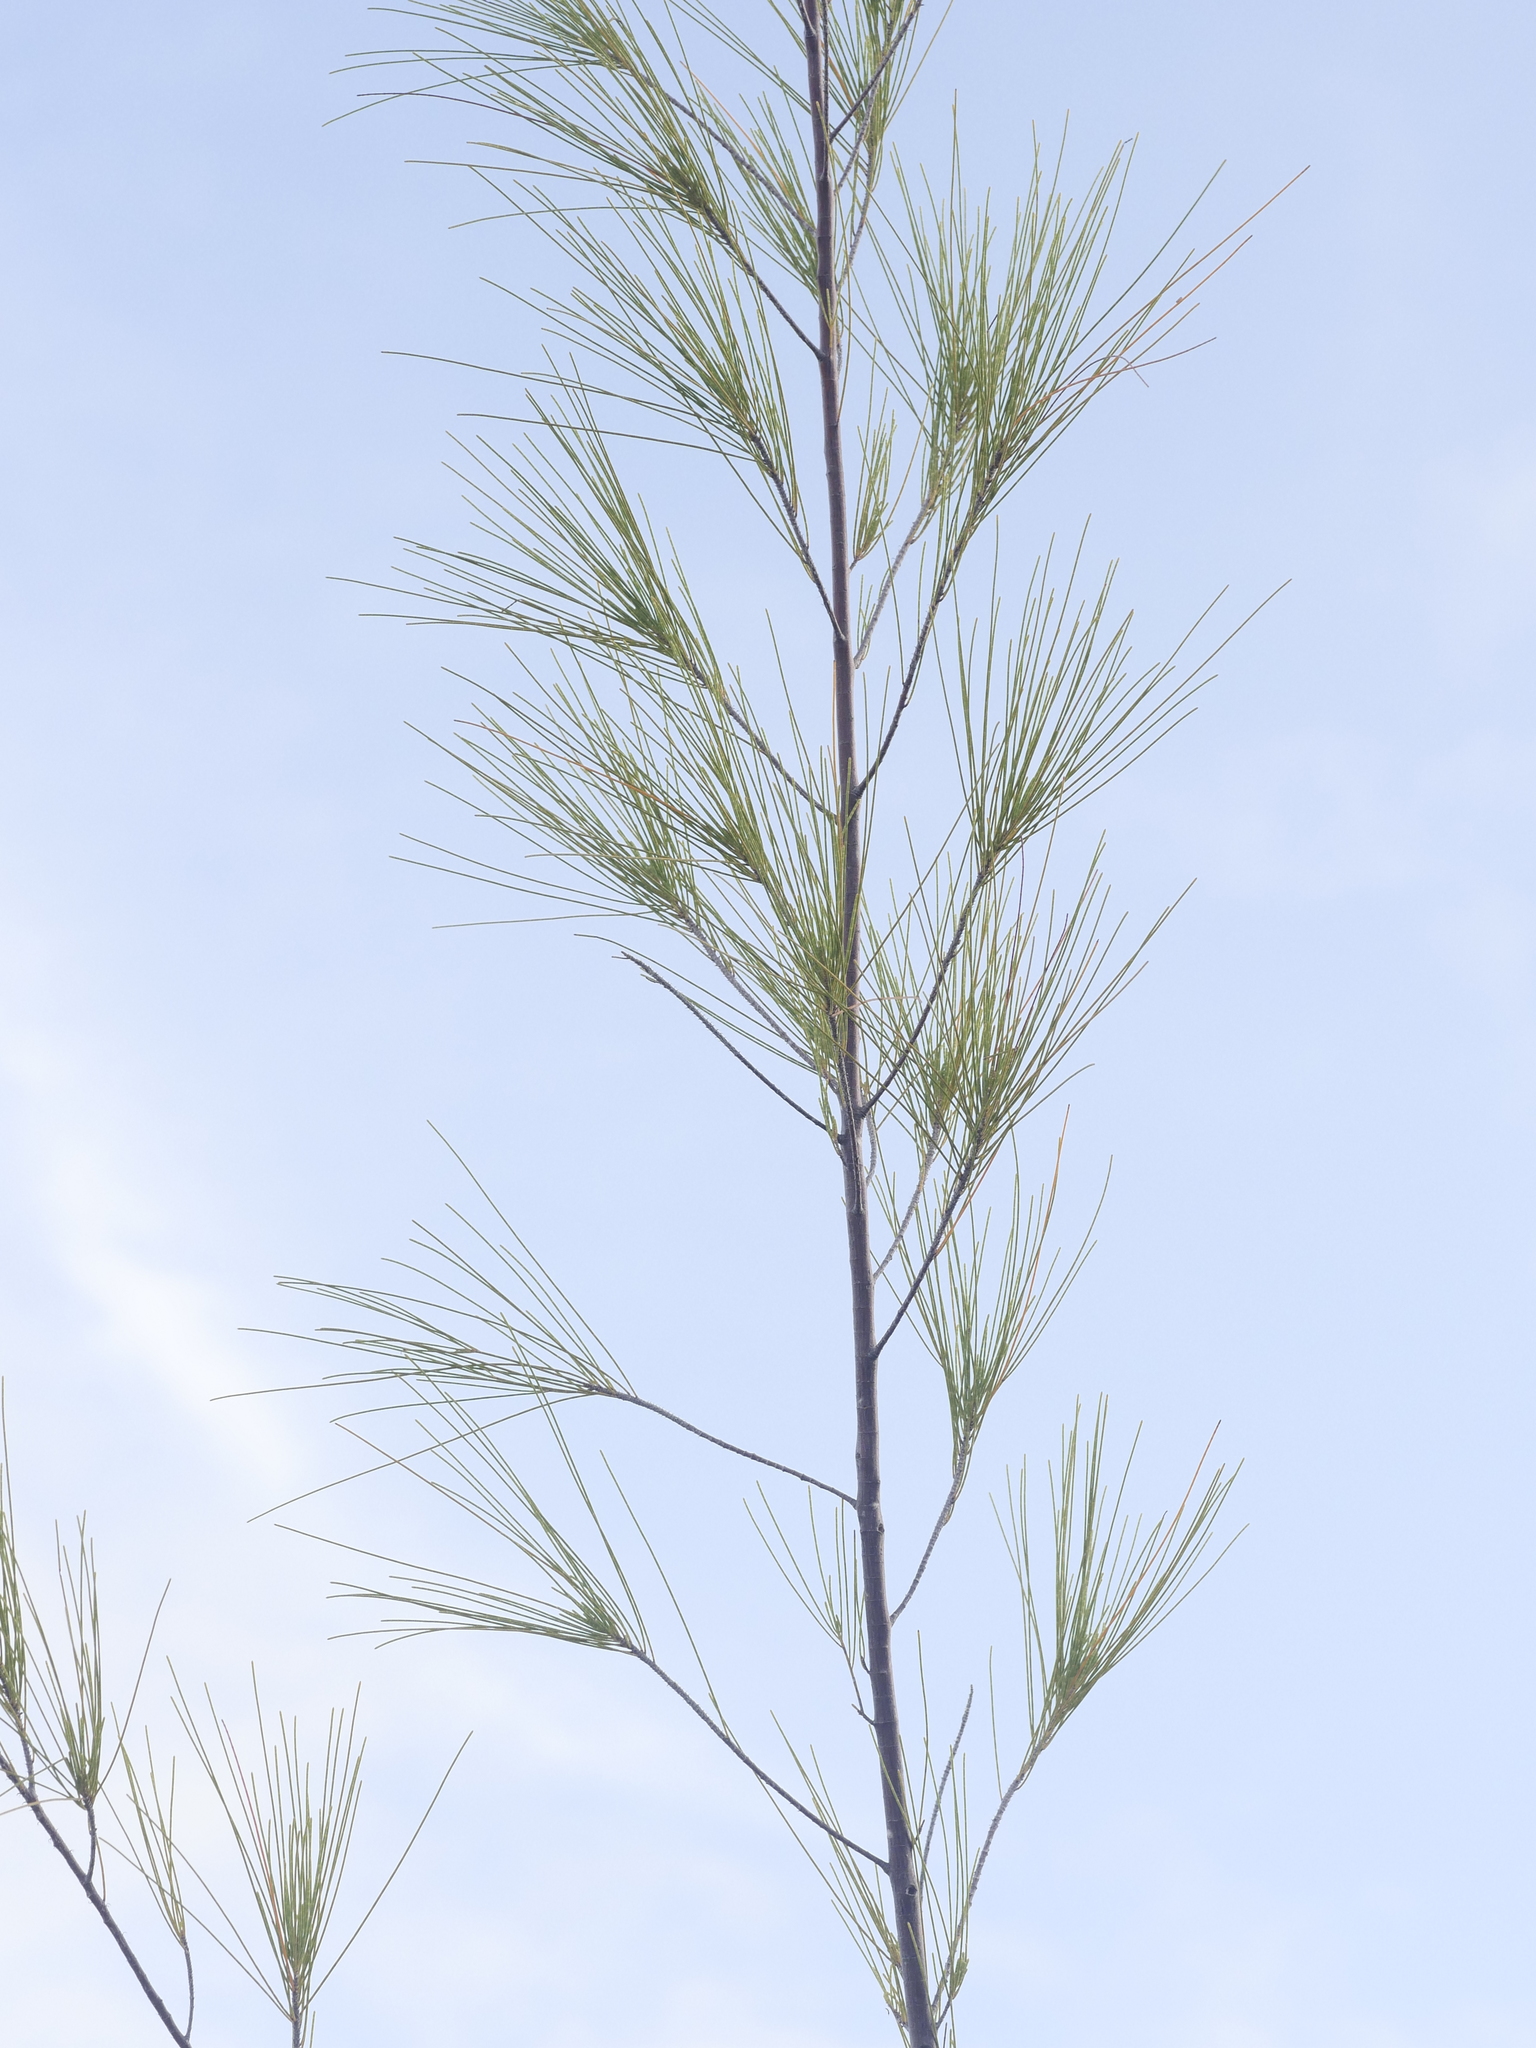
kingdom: Plantae
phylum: Tracheophyta
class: Magnoliopsida
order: Fagales
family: Casuarinaceae
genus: Casuarina
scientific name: Casuarina equisetifolia
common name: Beach sheoak
